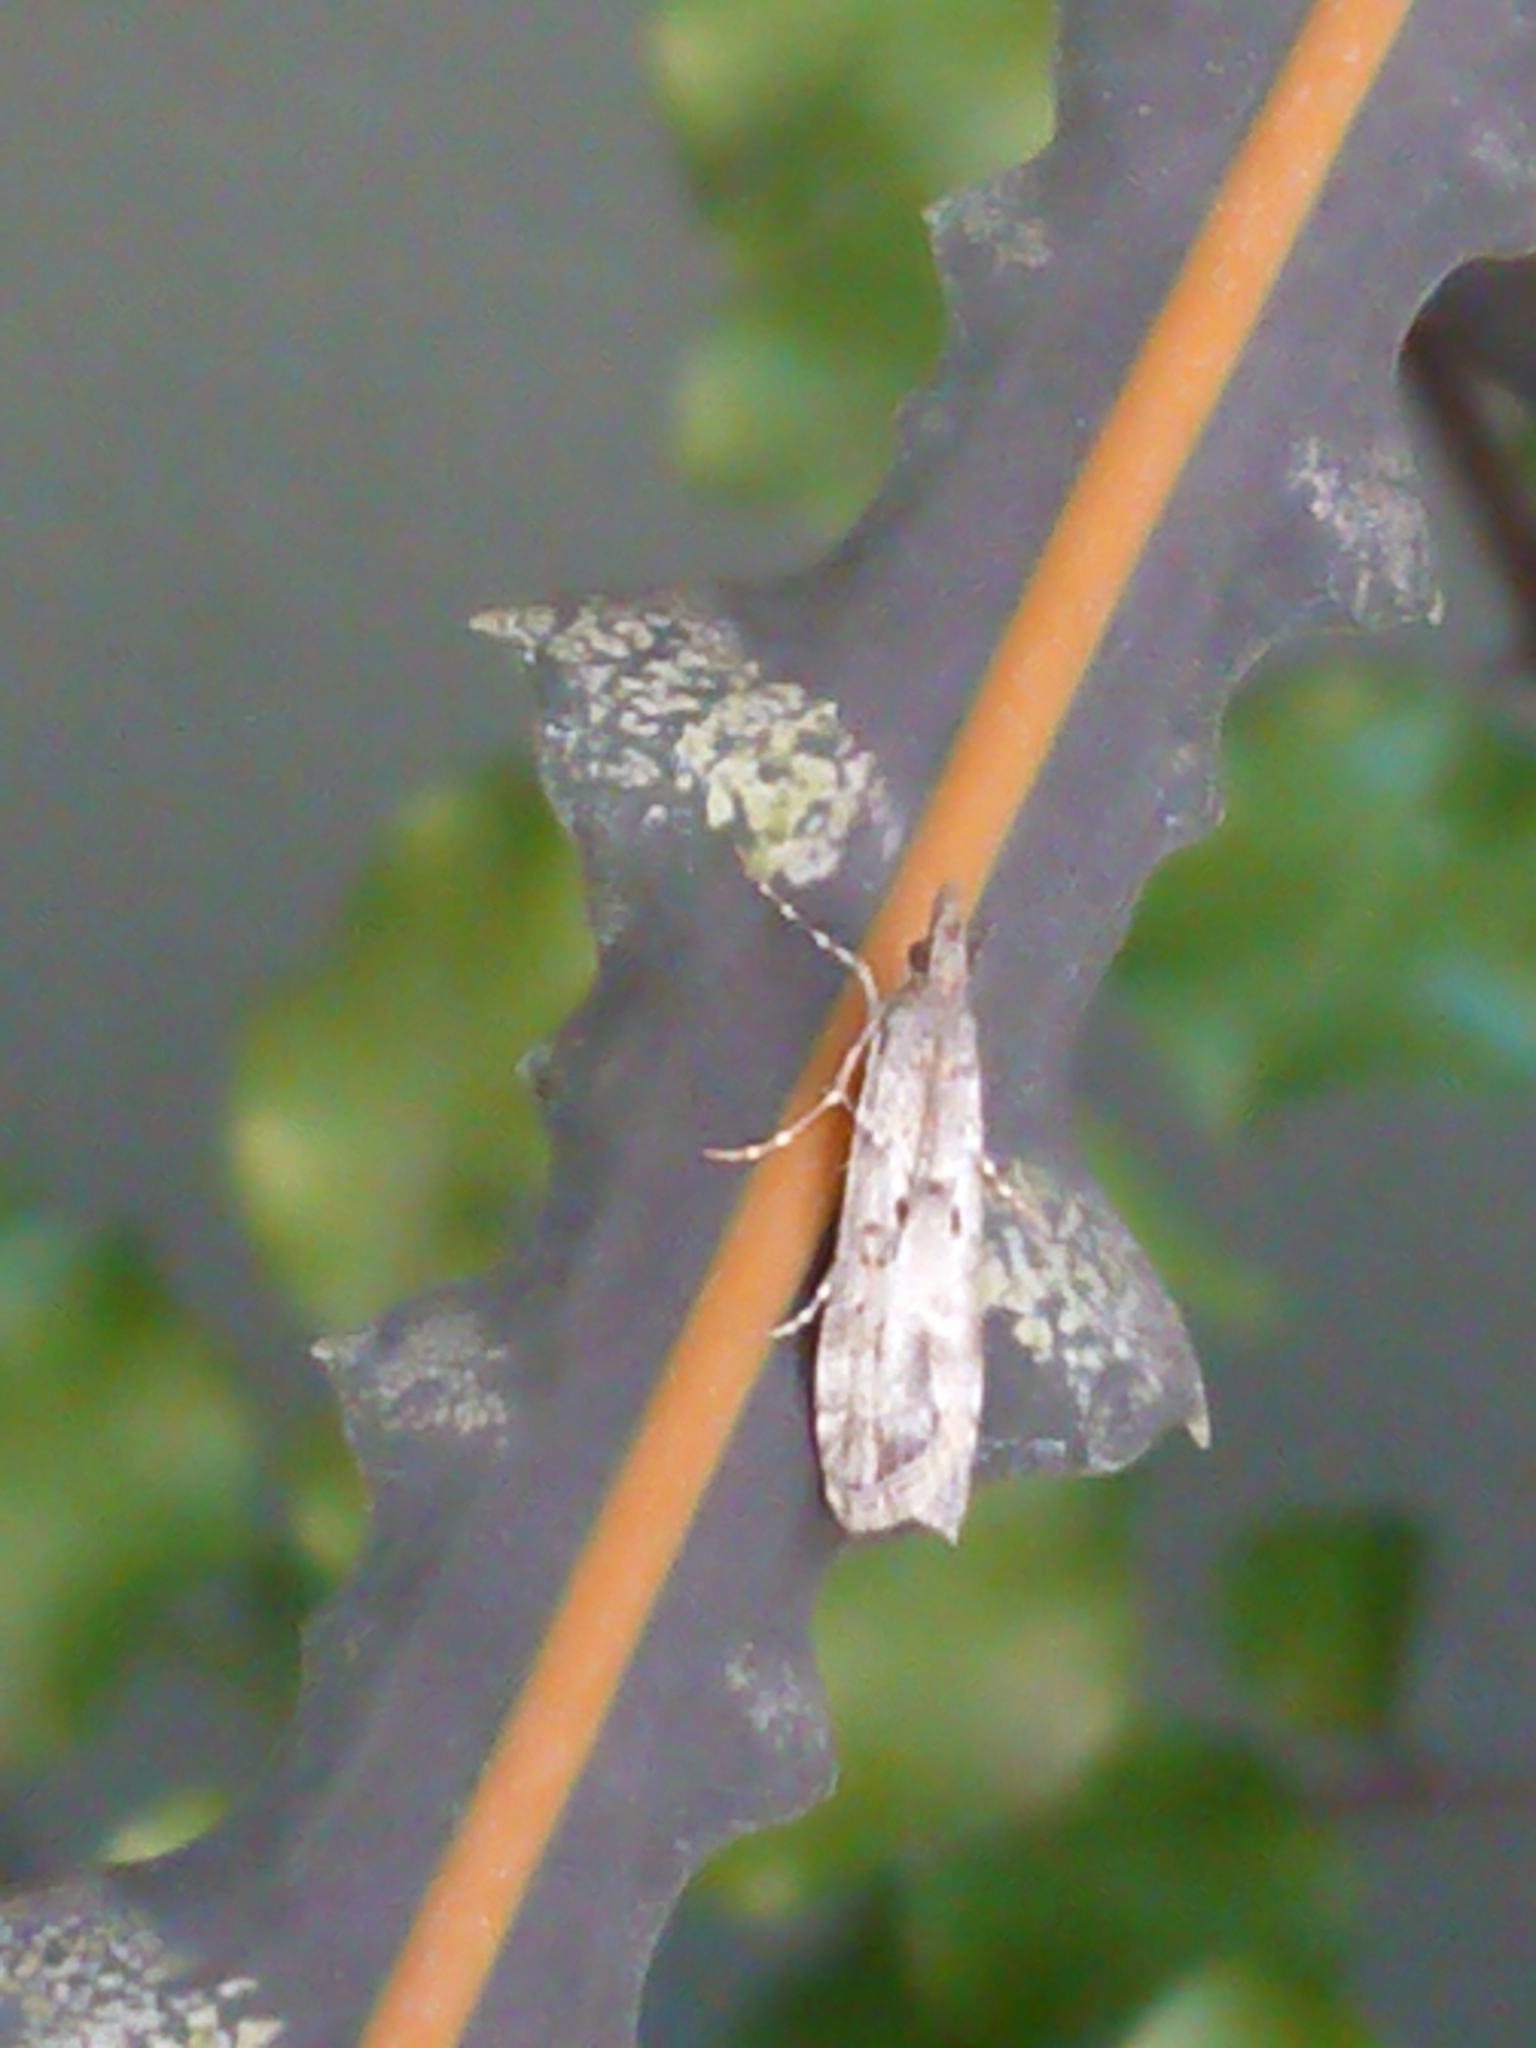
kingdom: Animalia
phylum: Arthropoda
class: Insecta
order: Lepidoptera
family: Crambidae
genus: Eudonia
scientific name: Eudonia leptalea
